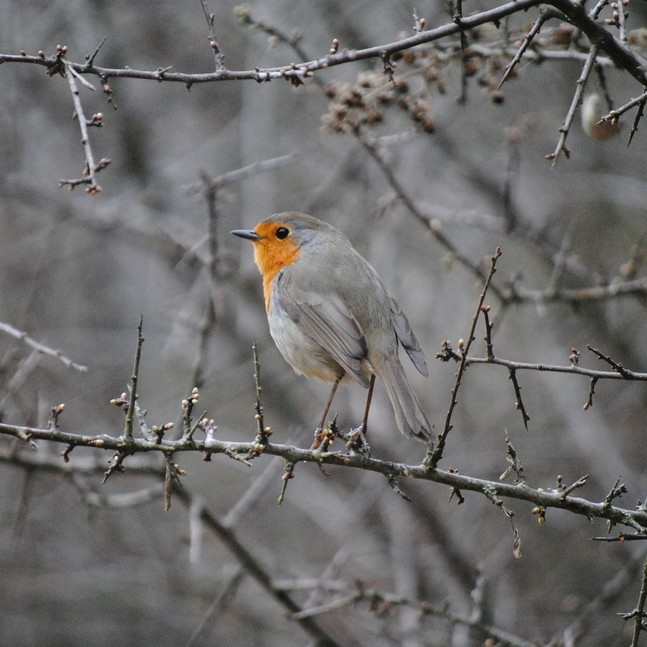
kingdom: Animalia
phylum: Chordata
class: Aves
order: Passeriformes
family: Muscicapidae
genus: Erithacus
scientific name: Erithacus rubecula
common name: European robin
